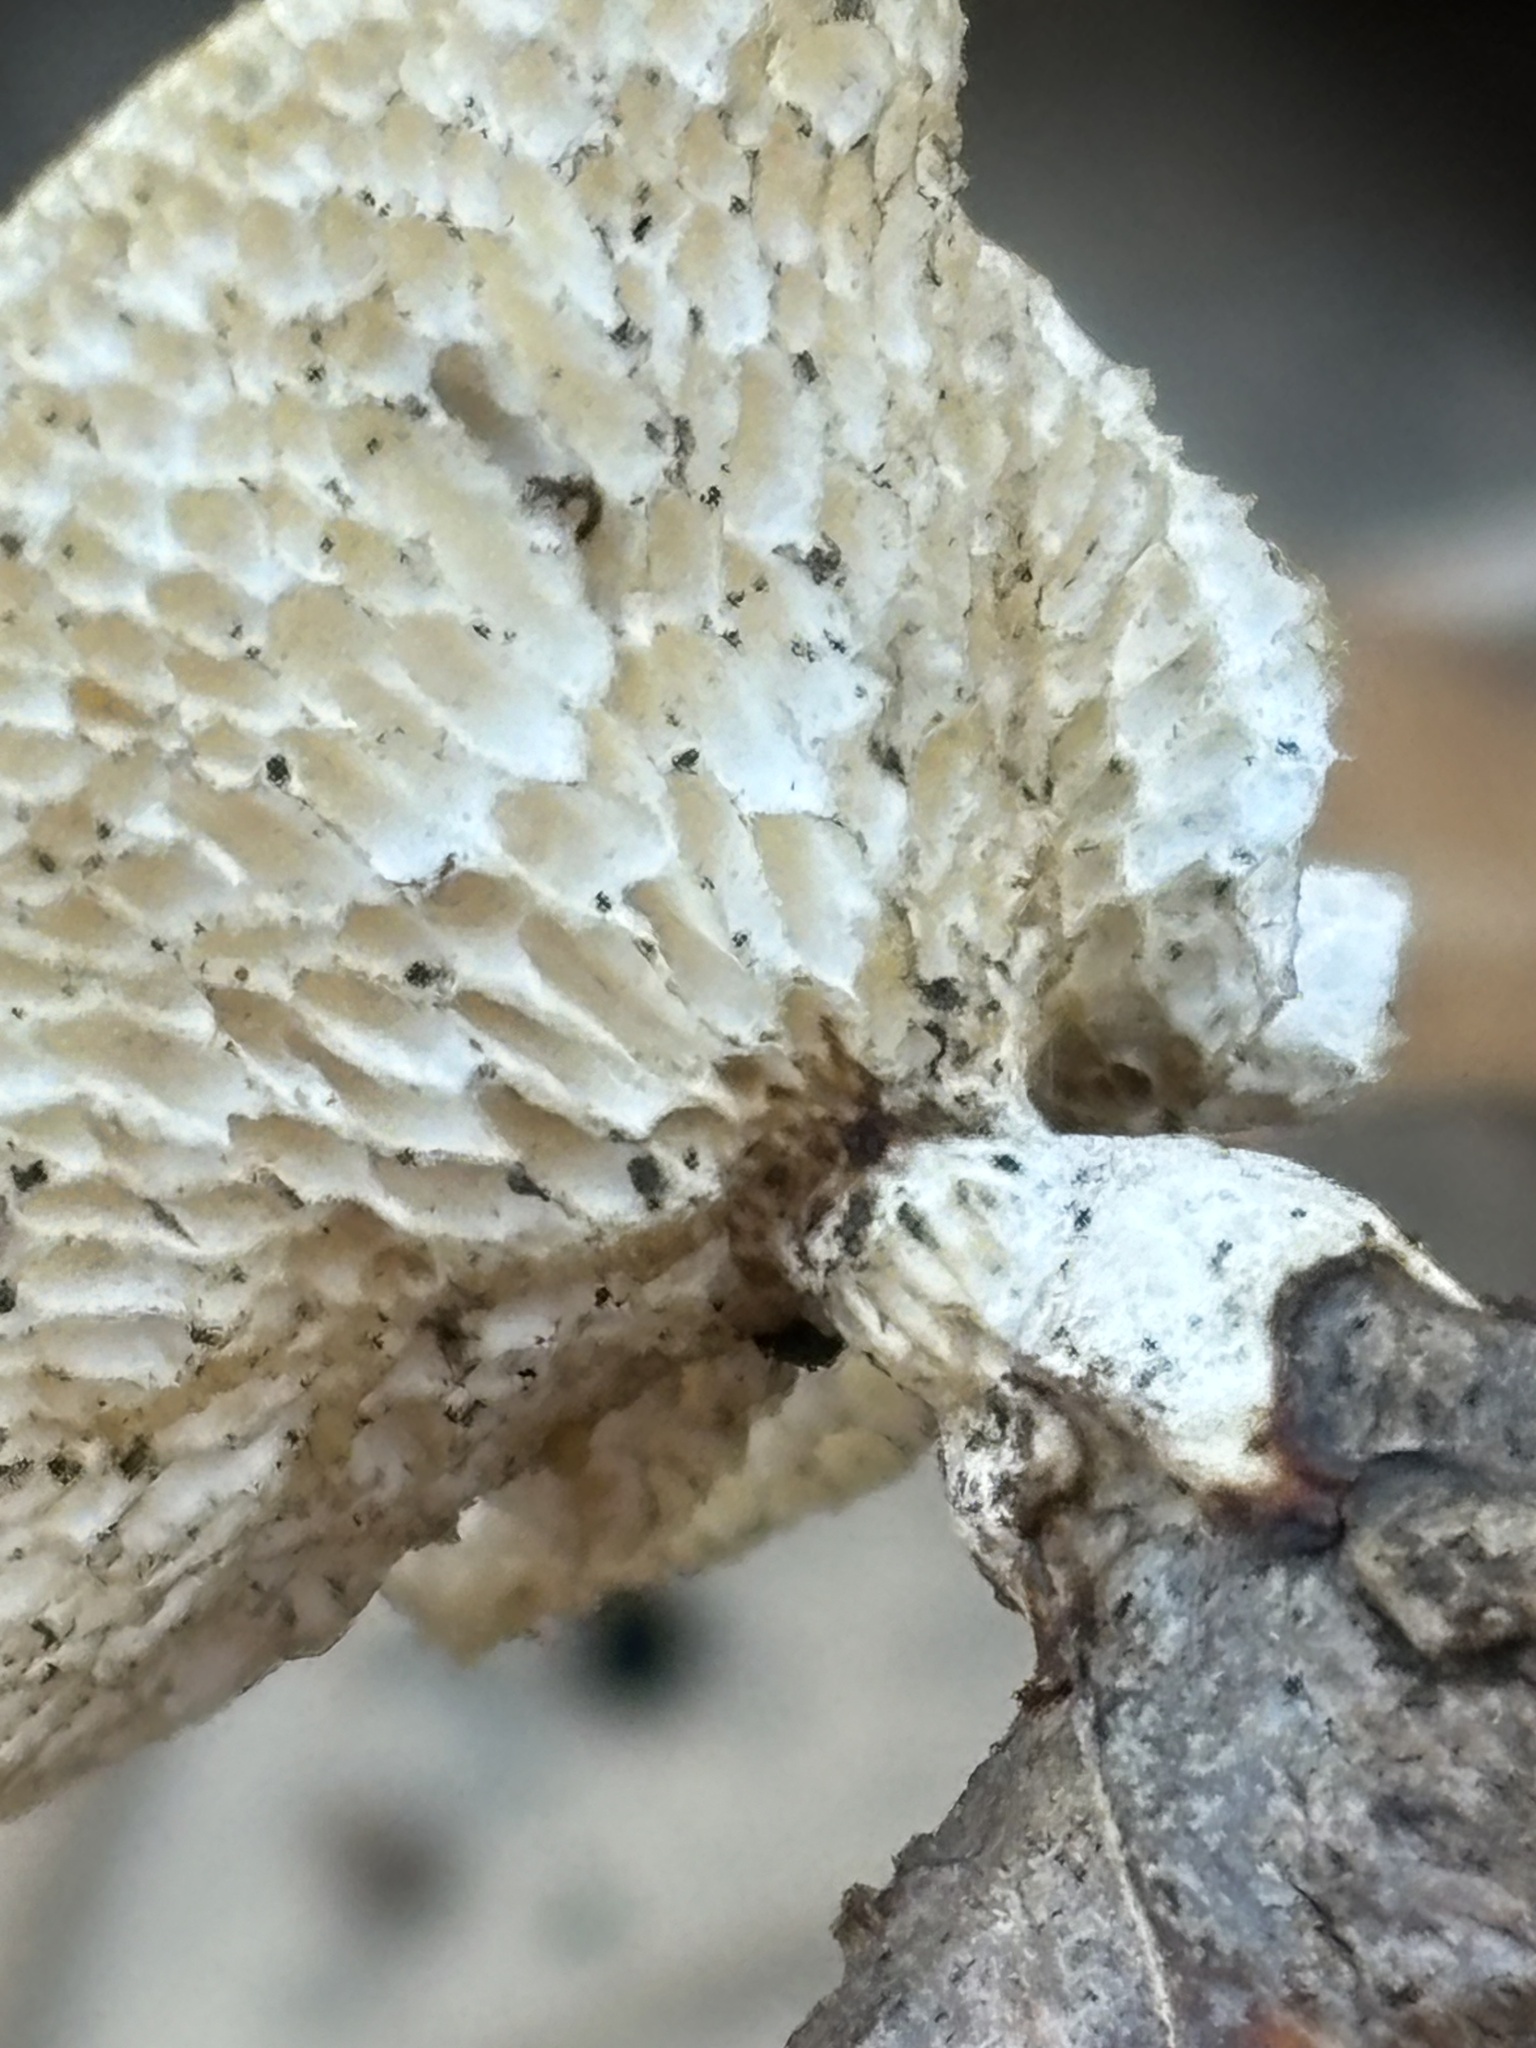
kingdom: Fungi
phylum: Basidiomycota
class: Agaricomycetes
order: Polyporales
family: Polyporaceae
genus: Neofavolus
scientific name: Neofavolus americanus
